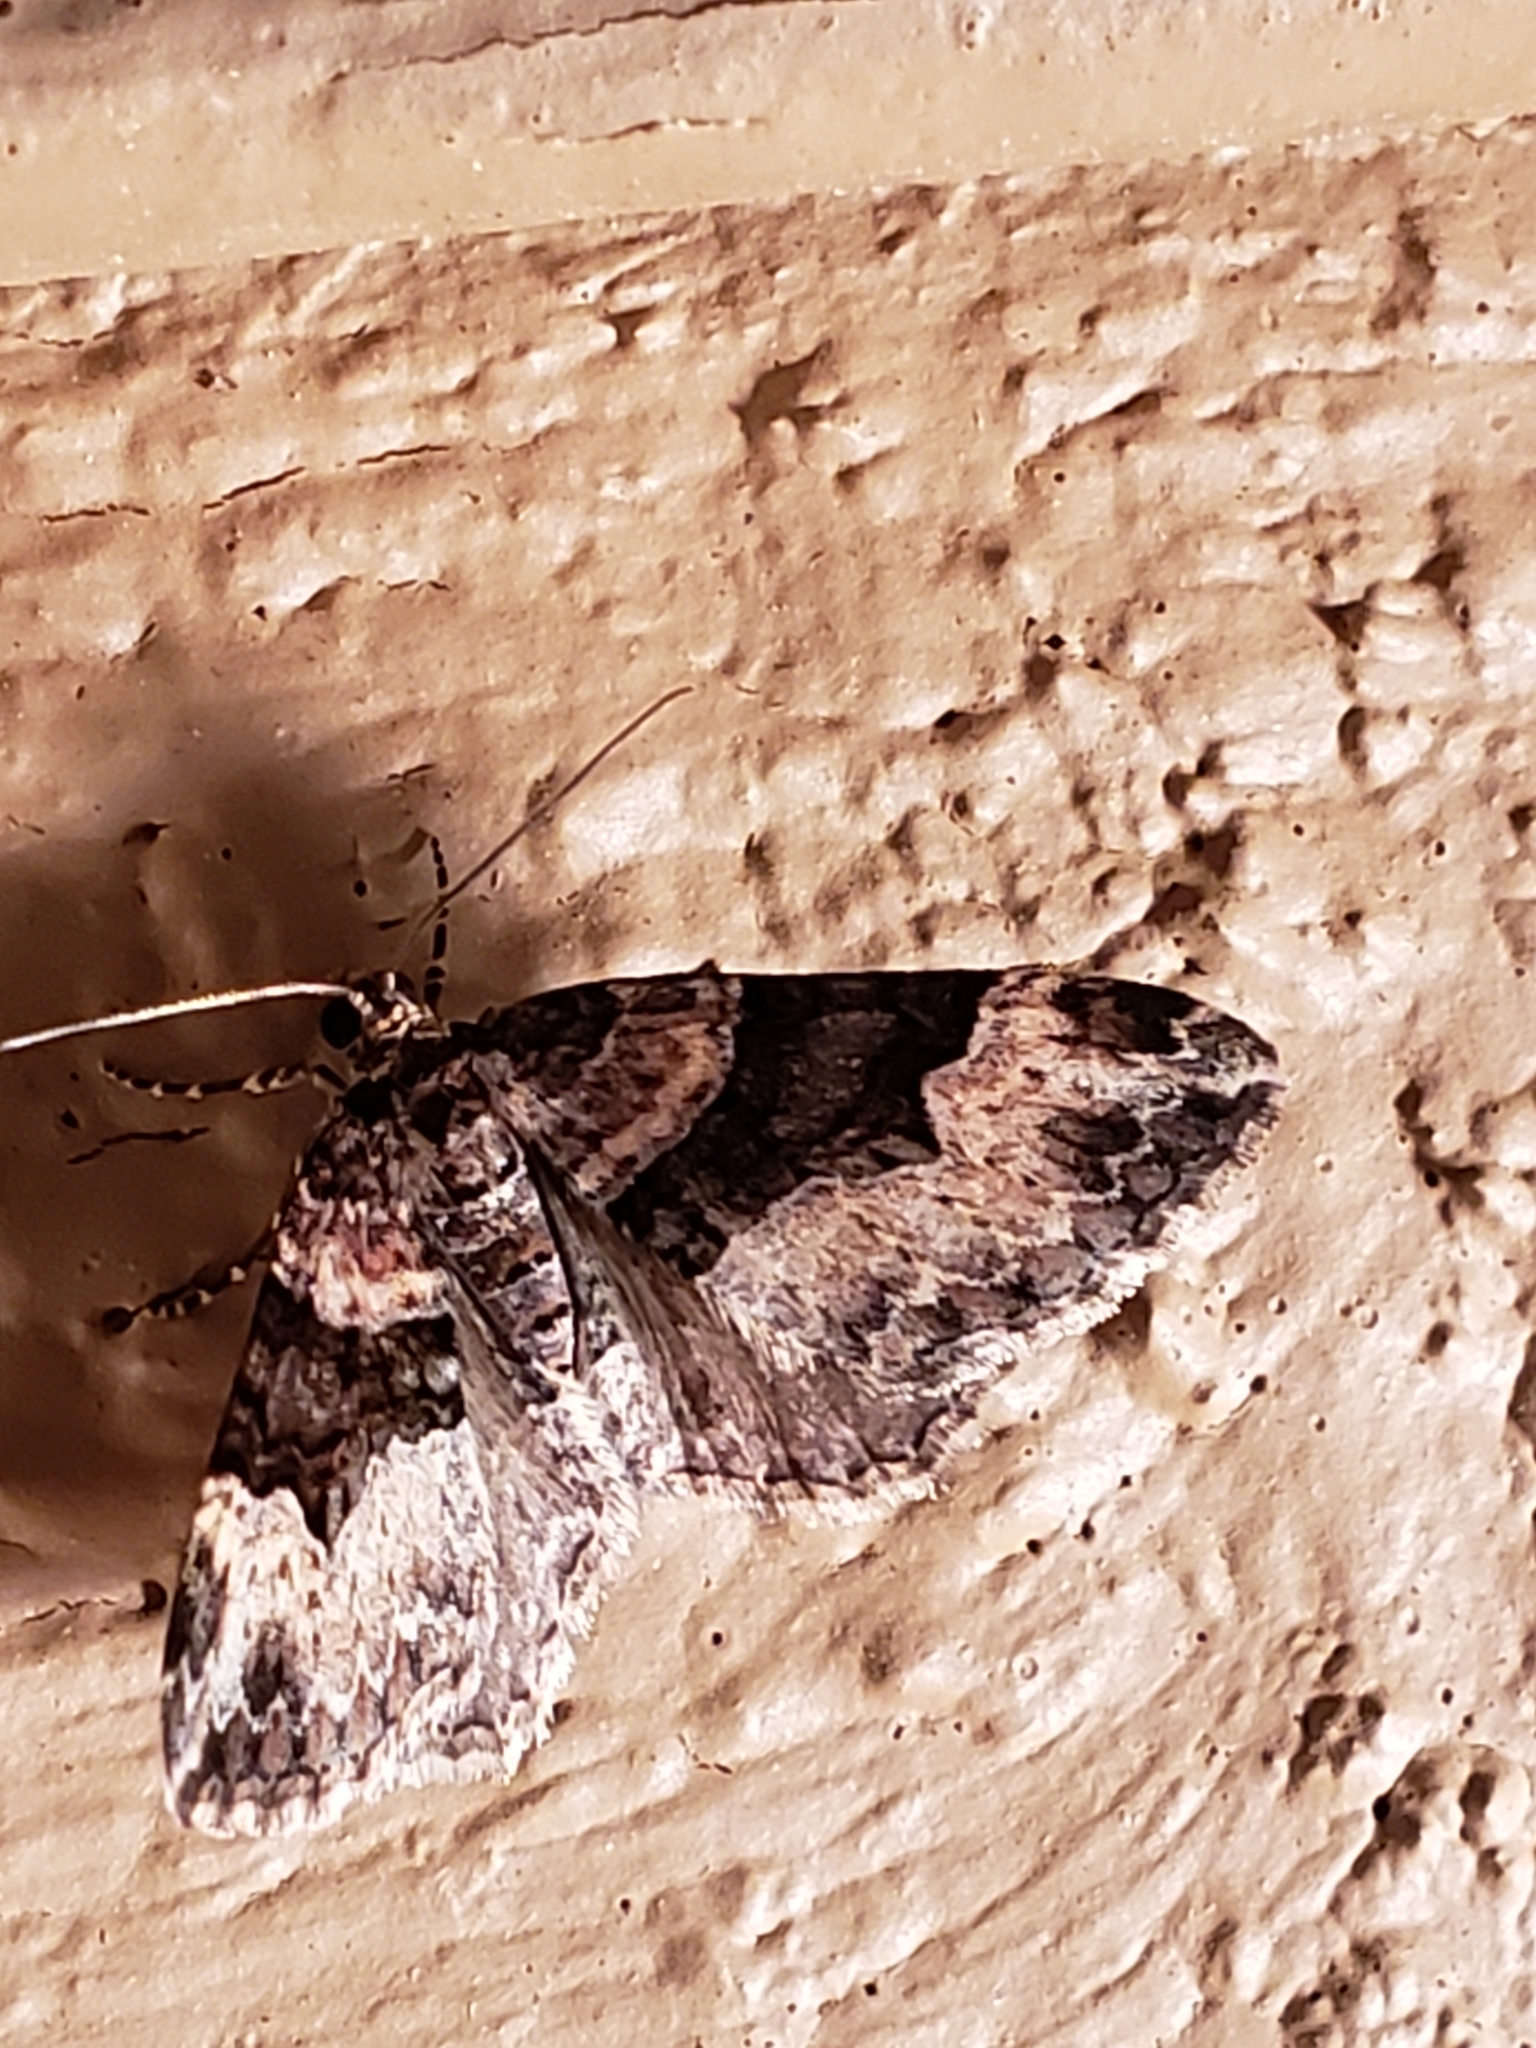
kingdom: Animalia
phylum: Arthropoda
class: Insecta
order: Lepidoptera
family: Geometridae
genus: Xanthorhoe
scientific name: Xanthorhoe lacustrata
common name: Toothed brown carpet
